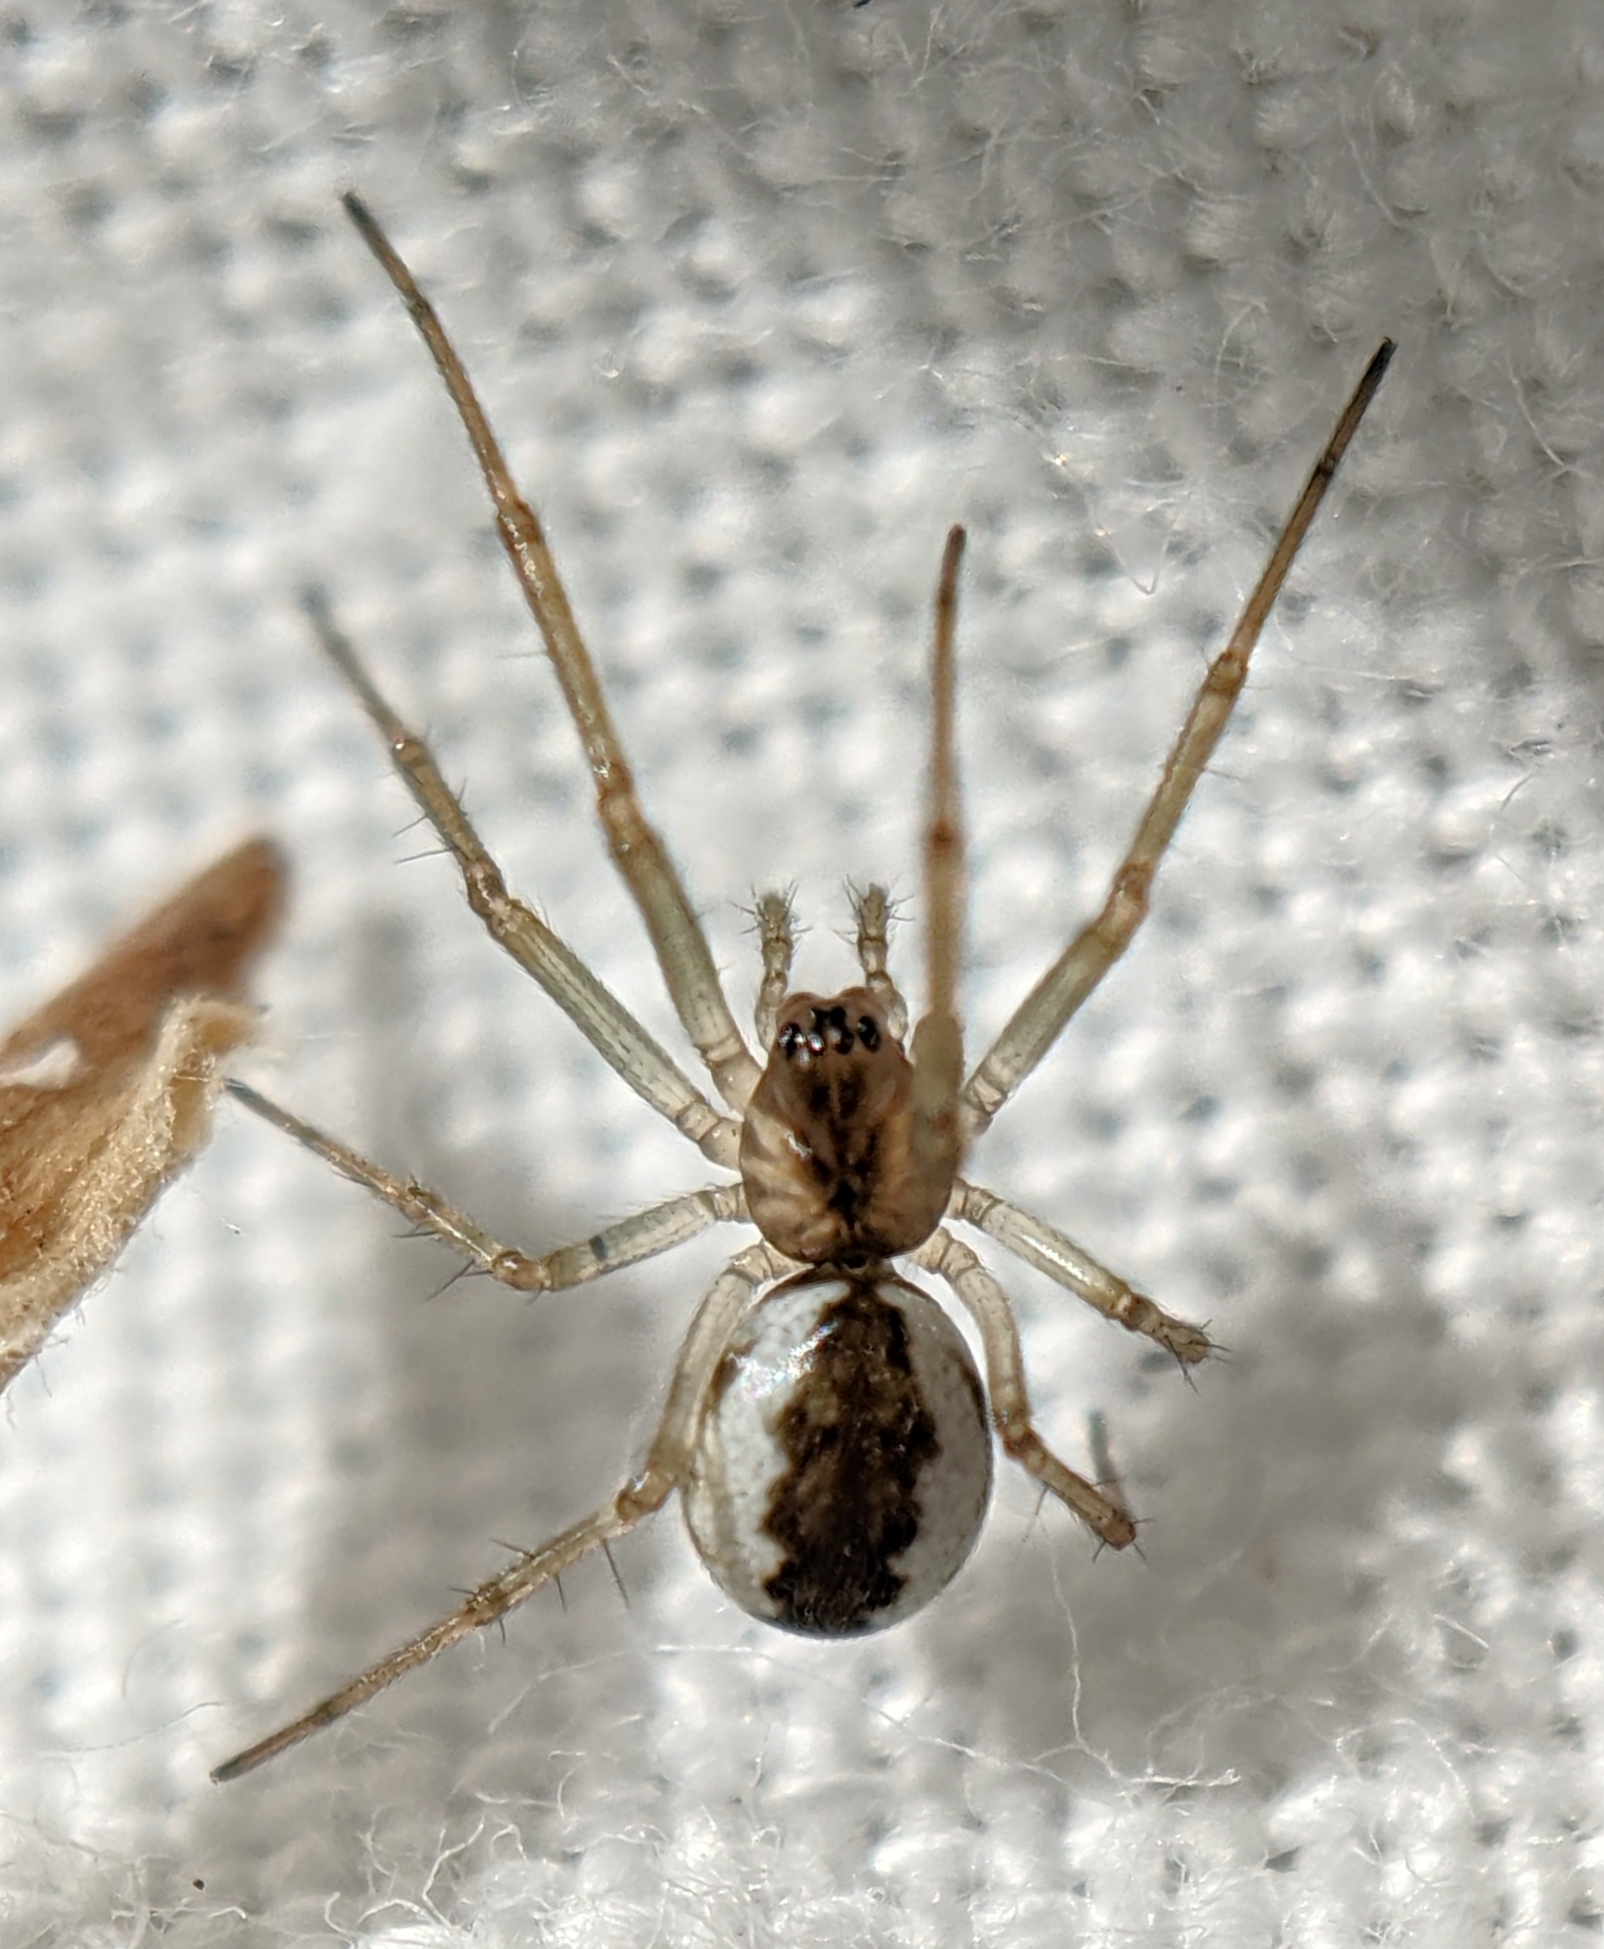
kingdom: Animalia
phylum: Arthropoda
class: Arachnida
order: Araneae
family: Linyphiidae
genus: Neriene
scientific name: Neriene peltata
